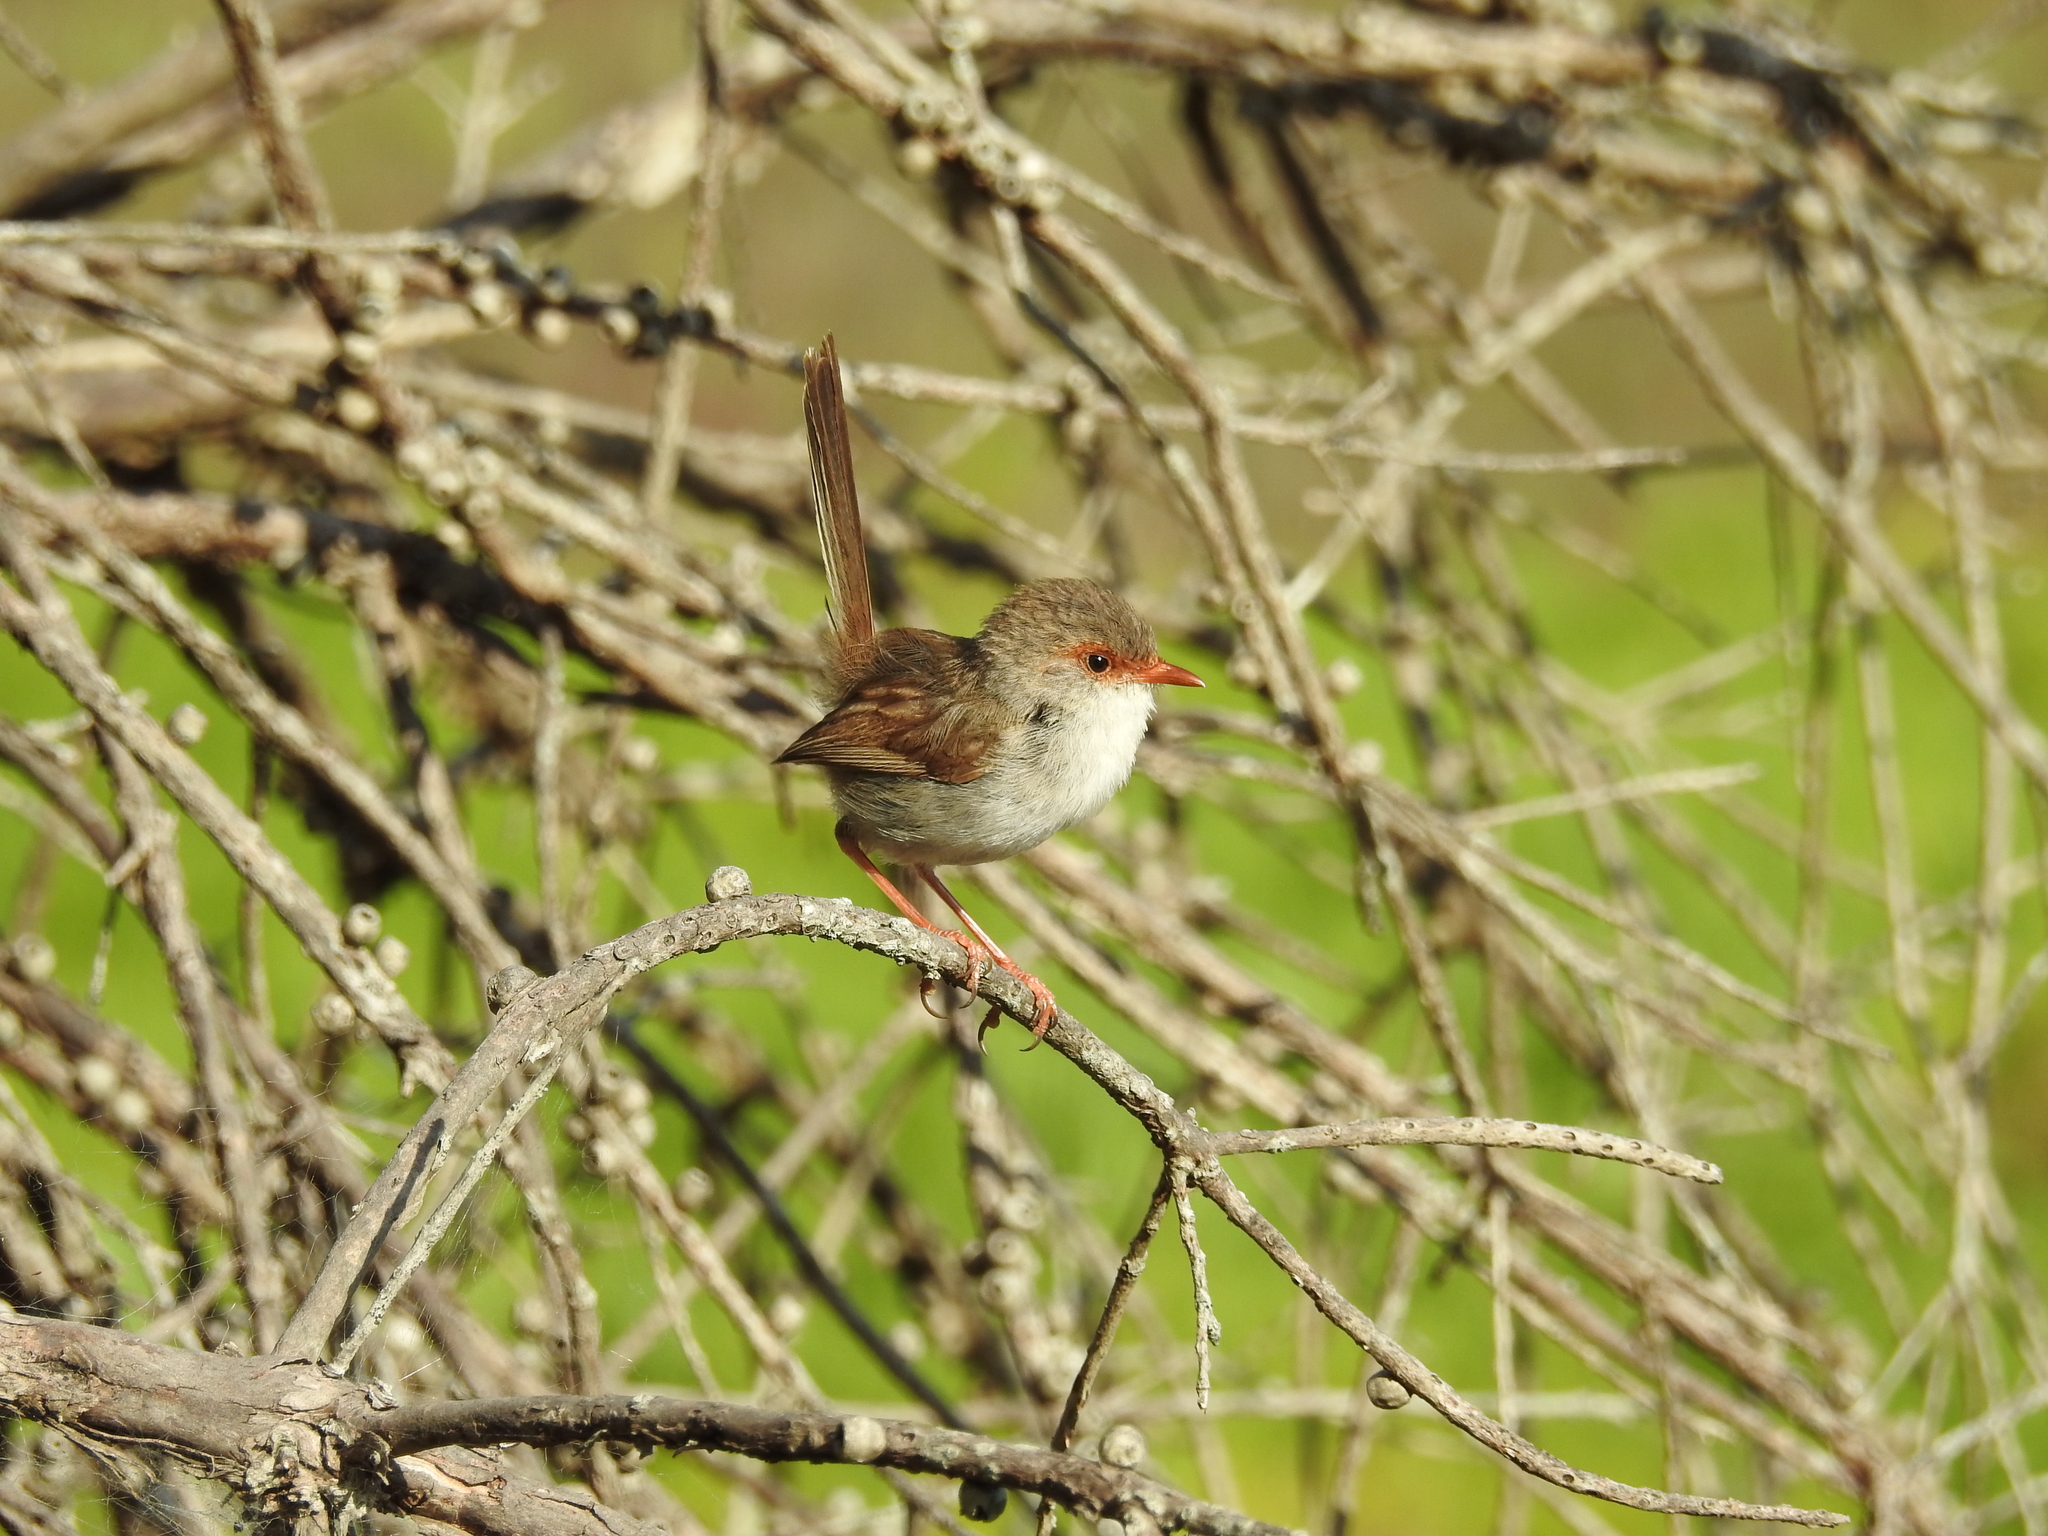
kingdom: Animalia
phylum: Chordata
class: Aves
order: Passeriformes
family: Maluridae
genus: Malurus
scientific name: Malurus cyaneus
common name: Superb fairywren
